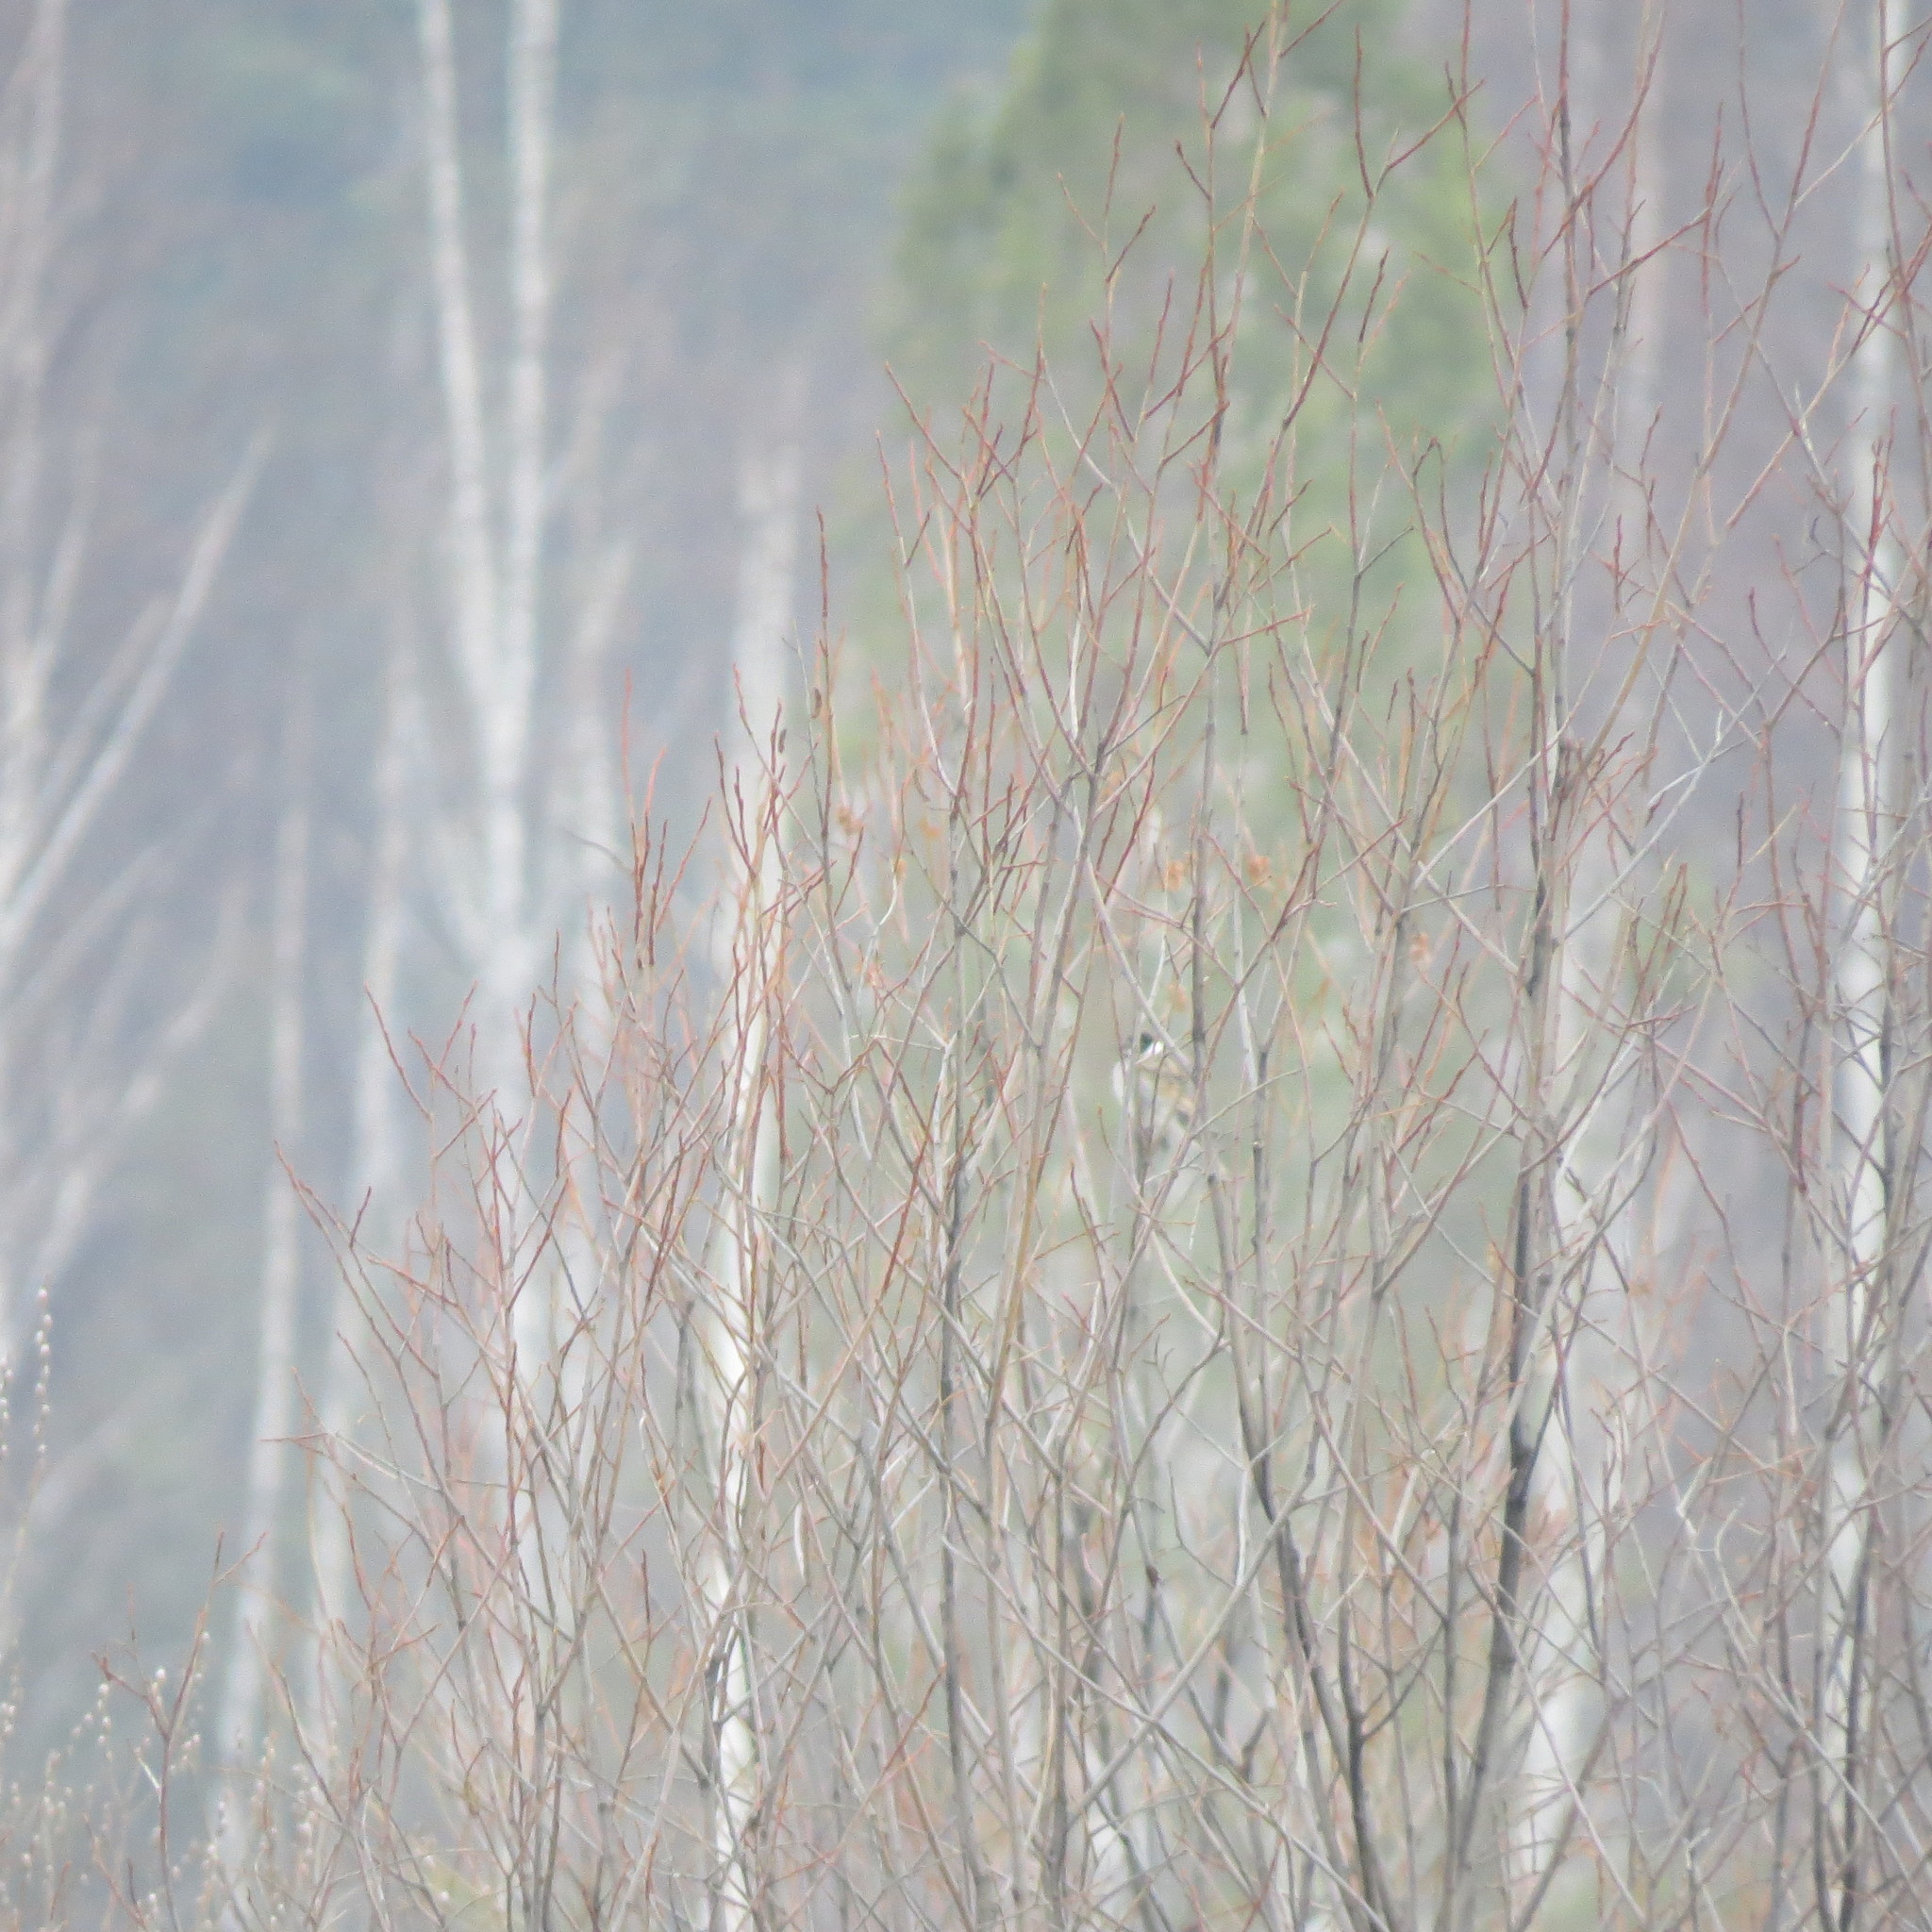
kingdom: Animalia
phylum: Chordata
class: Aves
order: Passeriformes
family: Emberizidae
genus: Emberiza
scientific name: Emberiza schoeniclus
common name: Reed bunting
